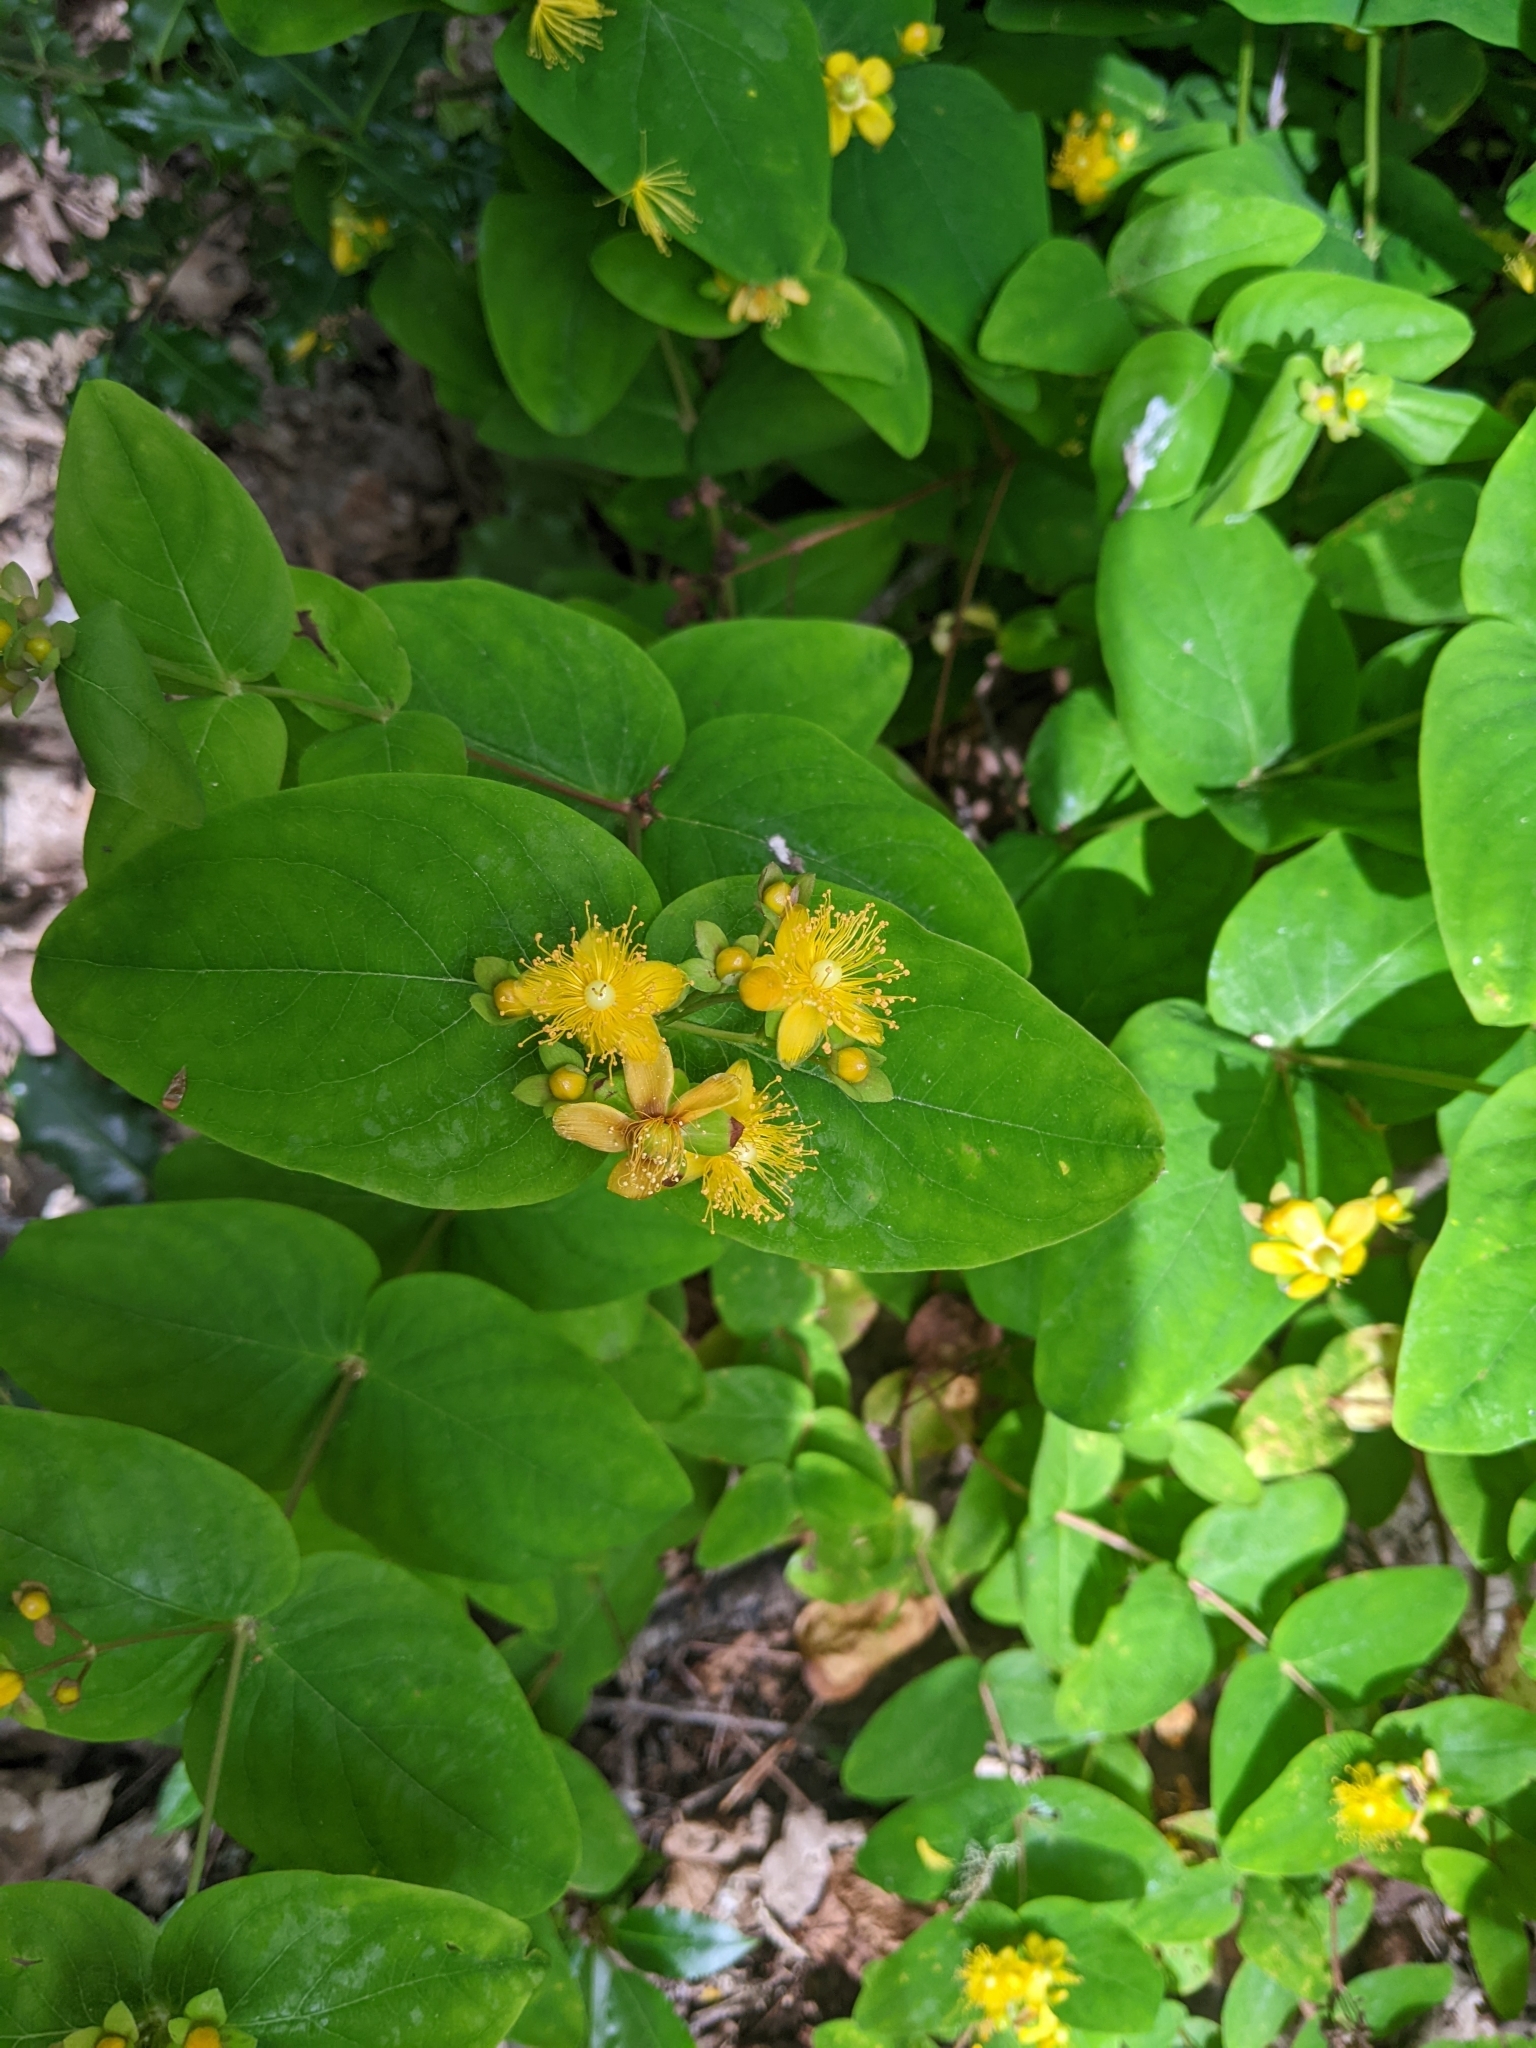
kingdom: Plantae
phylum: Tracheophyta
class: Magnoliopsida
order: Malpighiales
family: Hypericaceae
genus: Hypericum
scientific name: Hypericum androsaemum
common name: Sweet-amber
